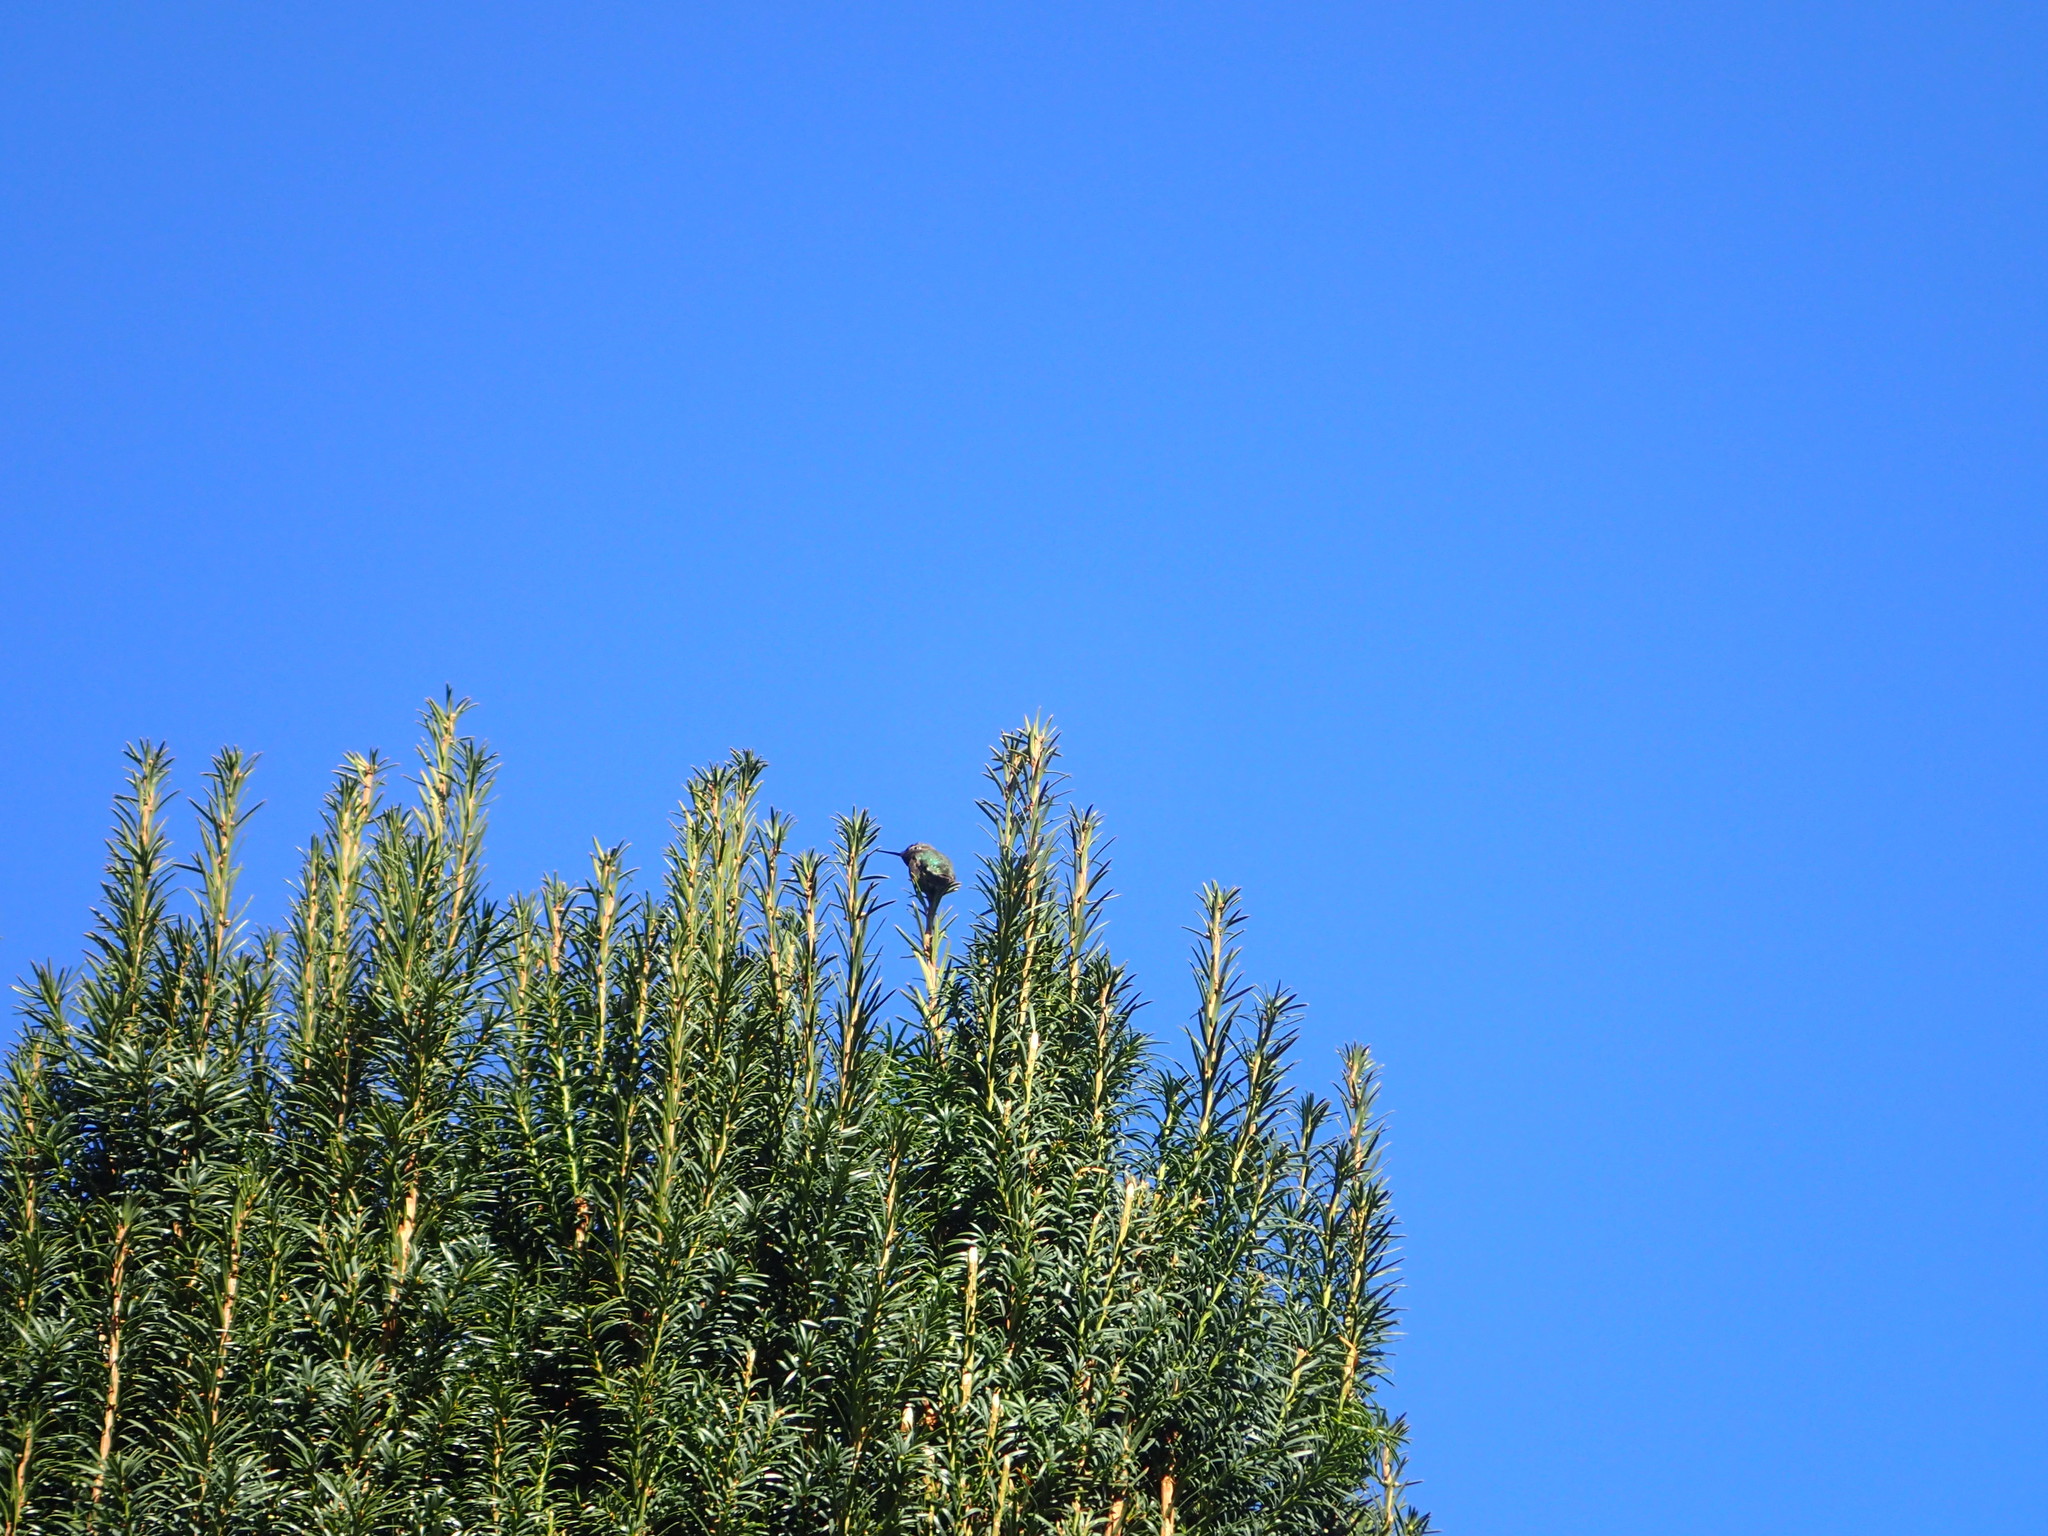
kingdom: Animalia
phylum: Chordata
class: Aves
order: Apodiformes
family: Trochilidae
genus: Calypte
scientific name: Calypte anna
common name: Anna's hummingbird
